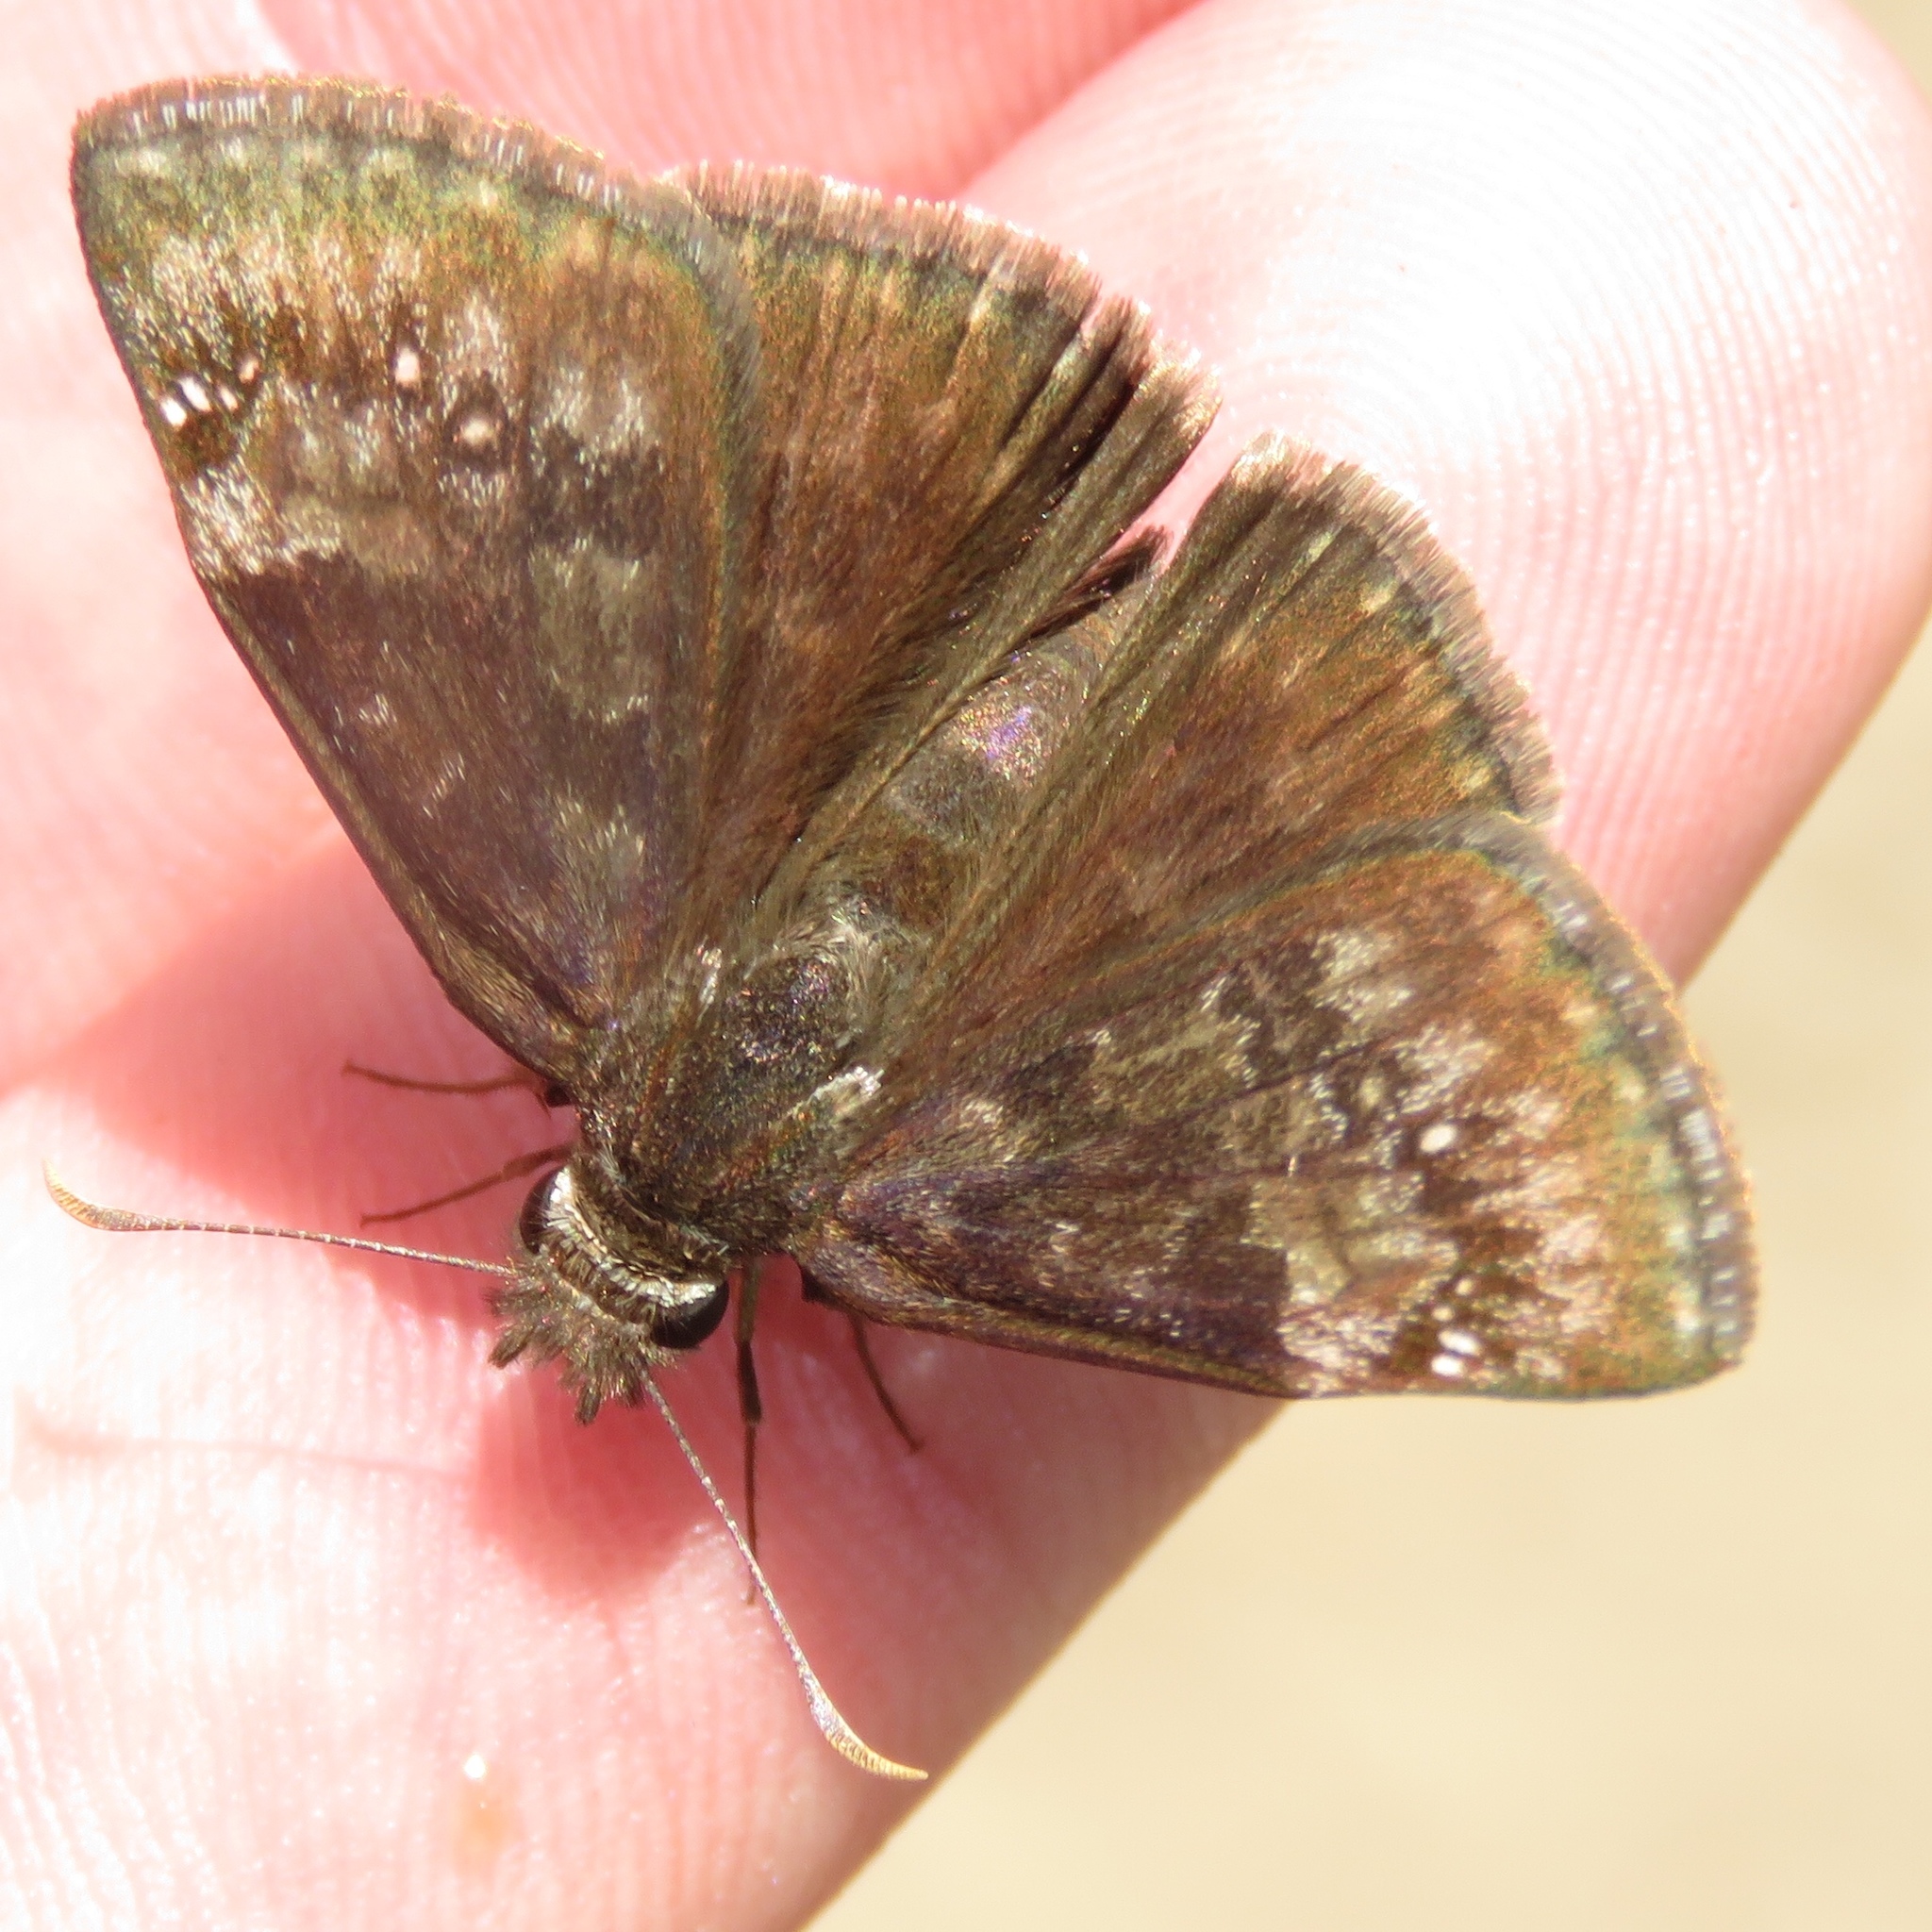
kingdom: Animalia
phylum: Arthropoda
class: Insecta
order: Lepidoptera
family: Hesperiidae
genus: Erynnis
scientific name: Erynnis baptisiae
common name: Wild indigo duskywing
